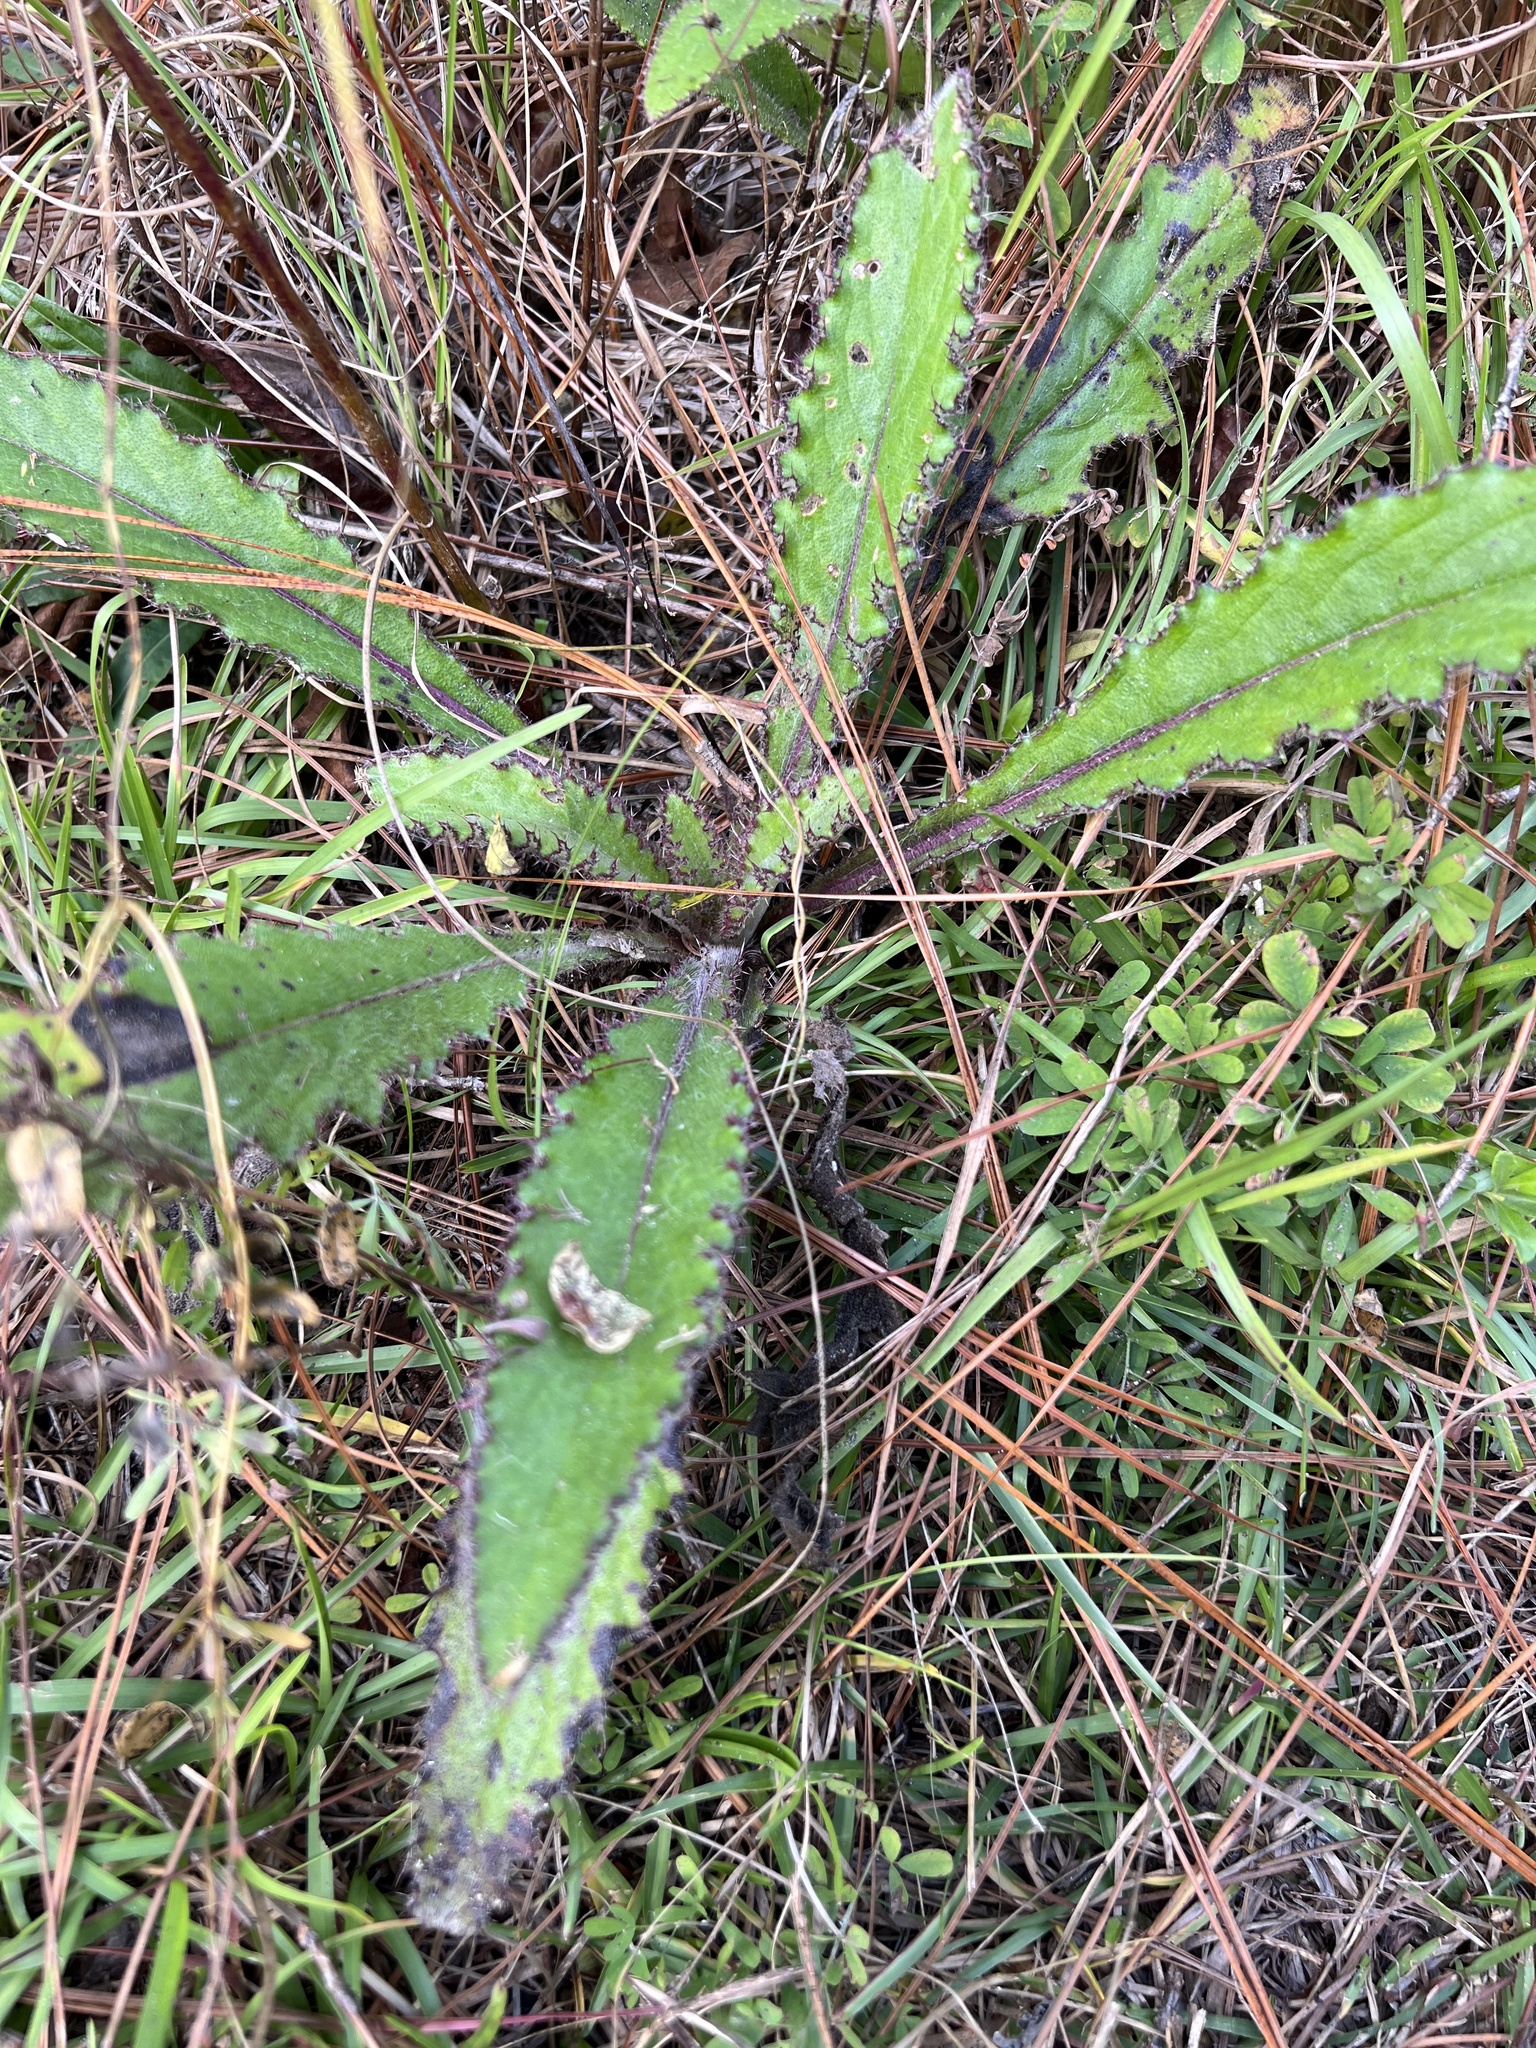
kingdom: Plantae
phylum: Tracheophyta
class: Magnoliopsida
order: Asterales
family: Asteraceae
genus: Cirsium
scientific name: Cirsium horridulum
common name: Bristly thistle
